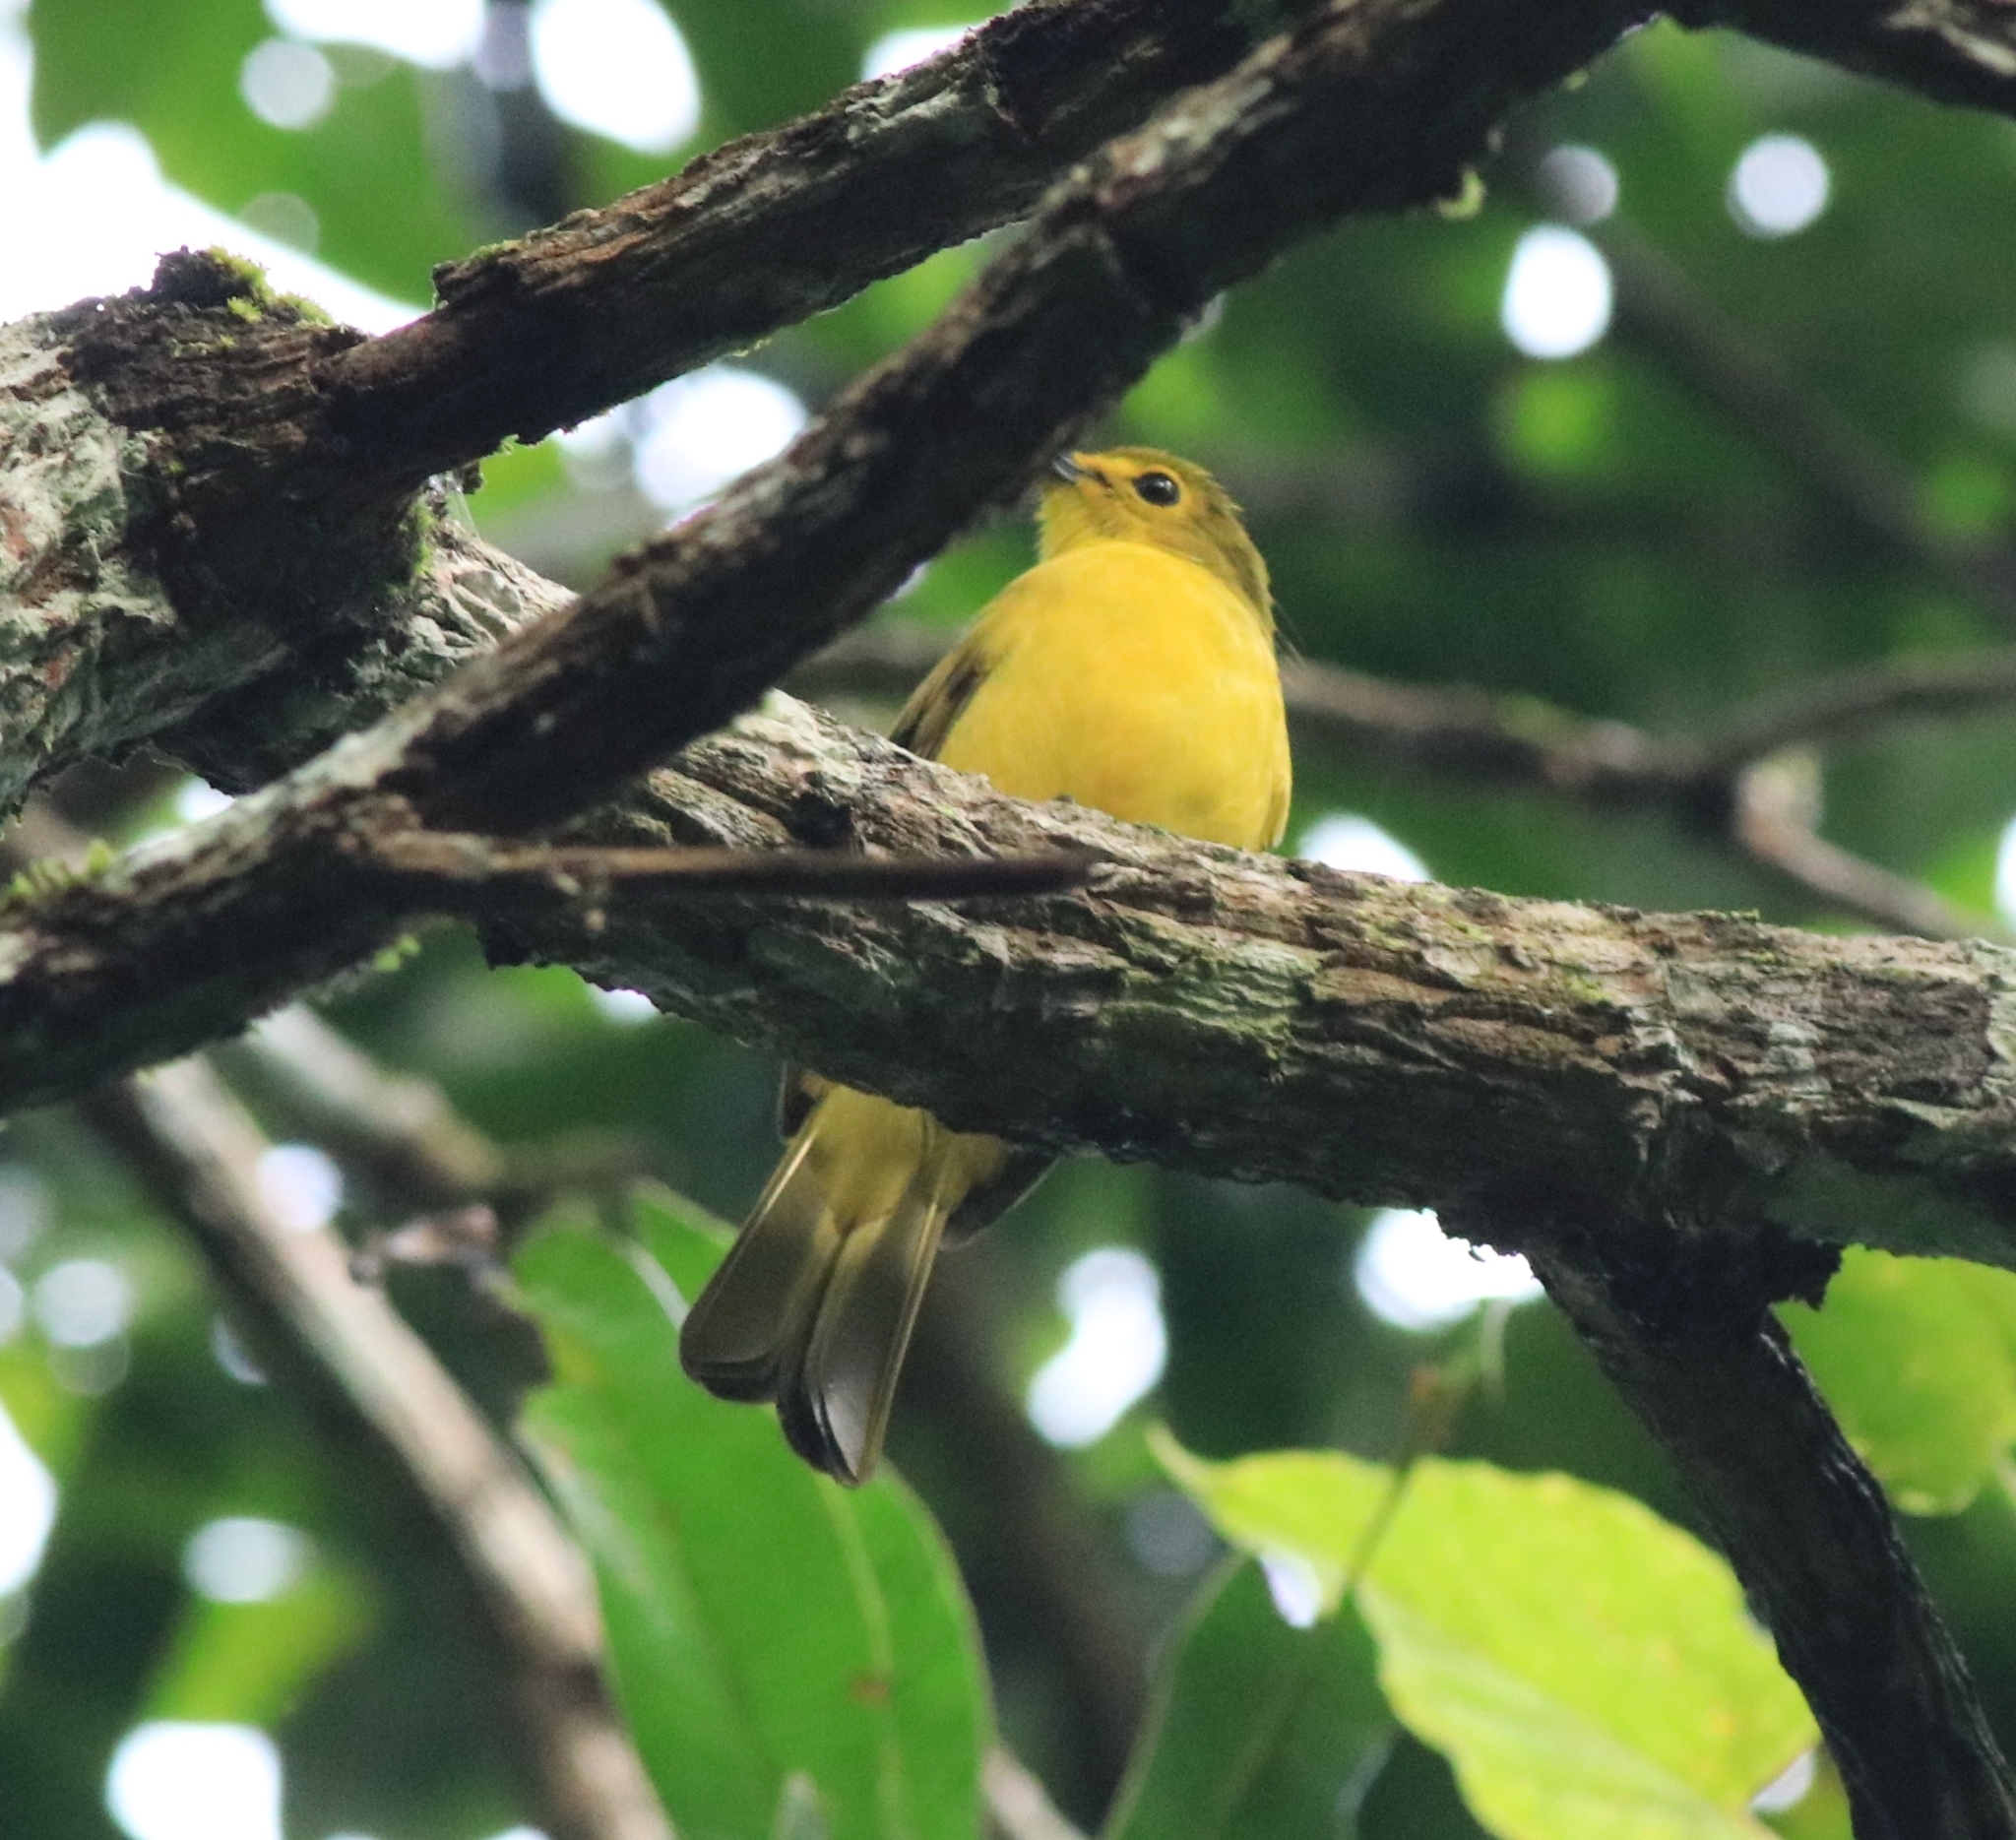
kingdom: Animalia
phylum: Chordata
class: Aves
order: Passeriformes
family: Pycnonotidae
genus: Acritillas
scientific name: Acritillas indica
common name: Yellow-browed bulbul
